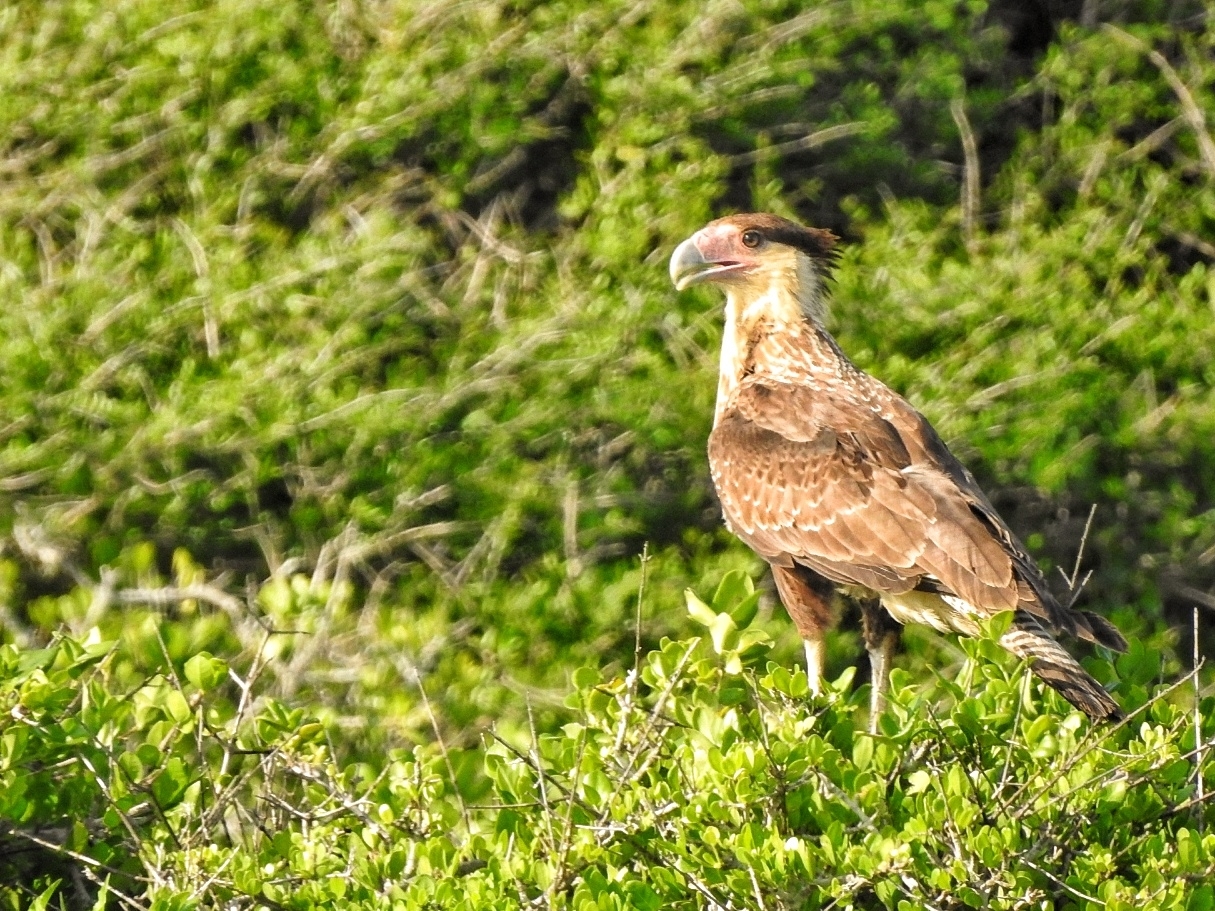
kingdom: Animalia
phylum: Chordata
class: Aves
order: Falconiformes
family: Falconidae
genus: Caracara
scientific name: Caracara plancus
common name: Southern caracara
